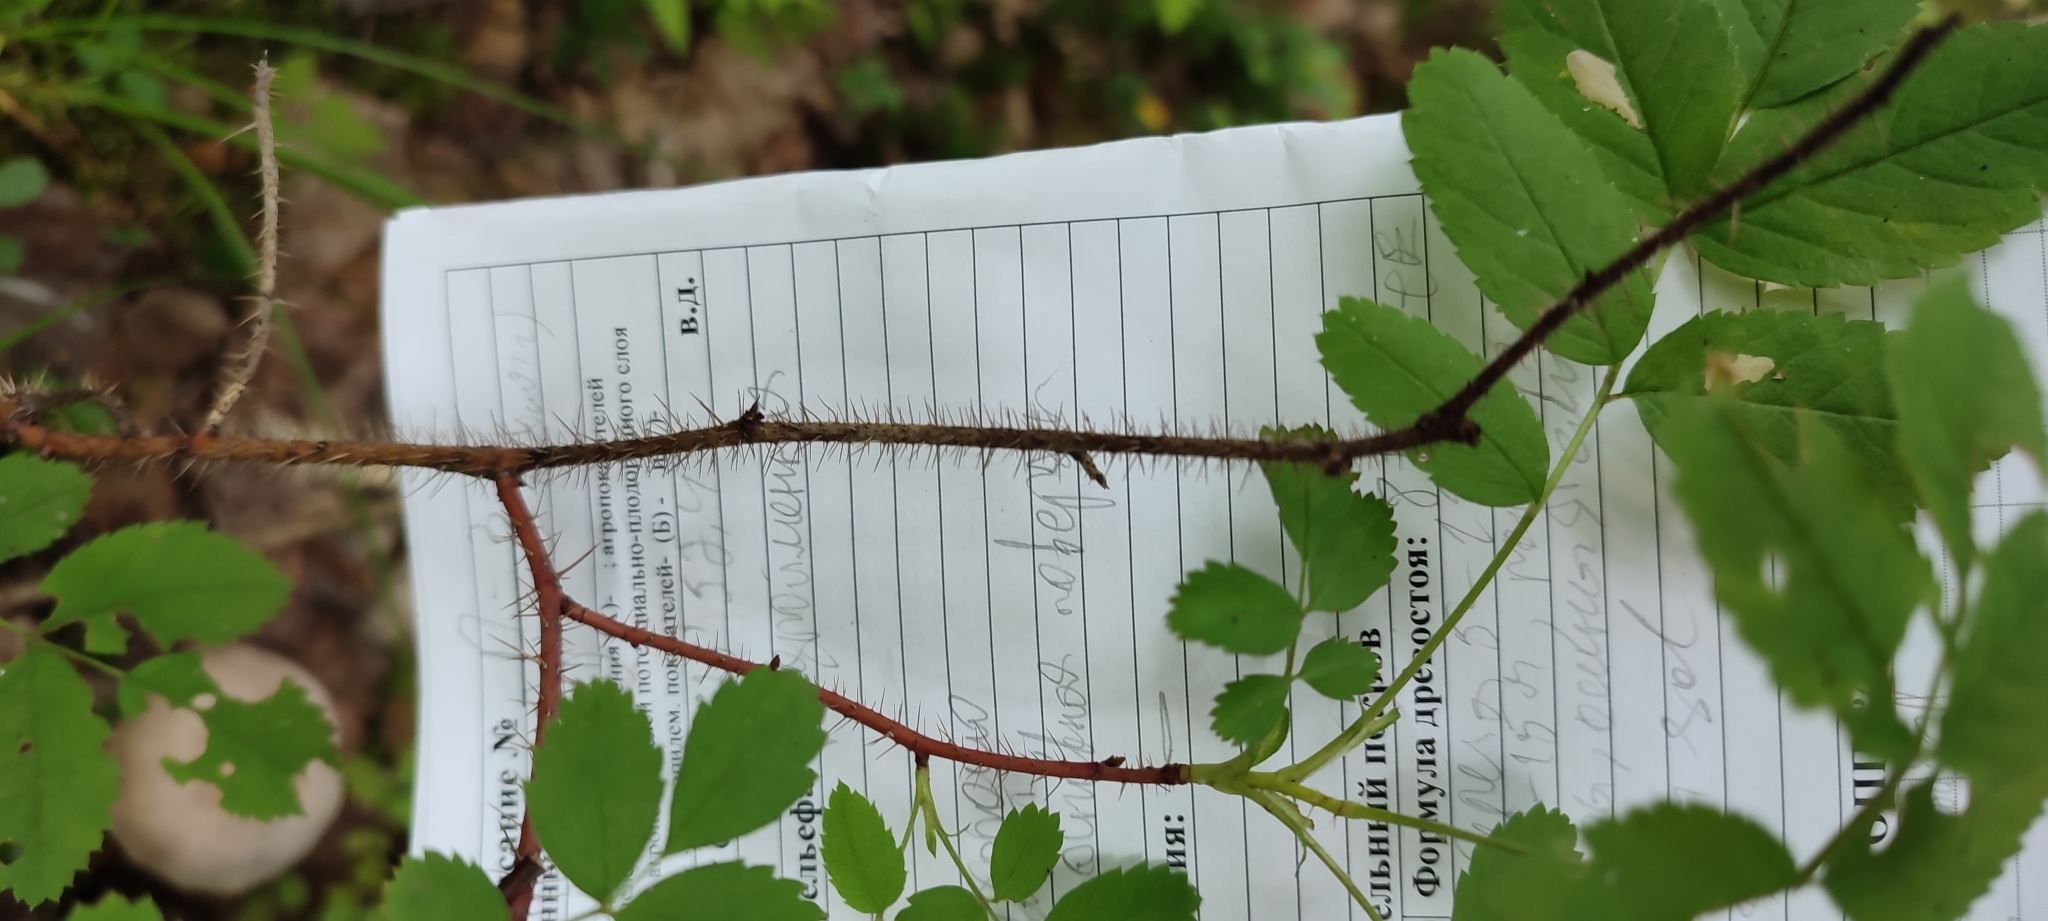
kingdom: Plantae
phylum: Tracheophyta
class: Magnoliopsida
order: Rosales
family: Rosaceae
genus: Rosa
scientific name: Rosa acicularis
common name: Prickly rose
